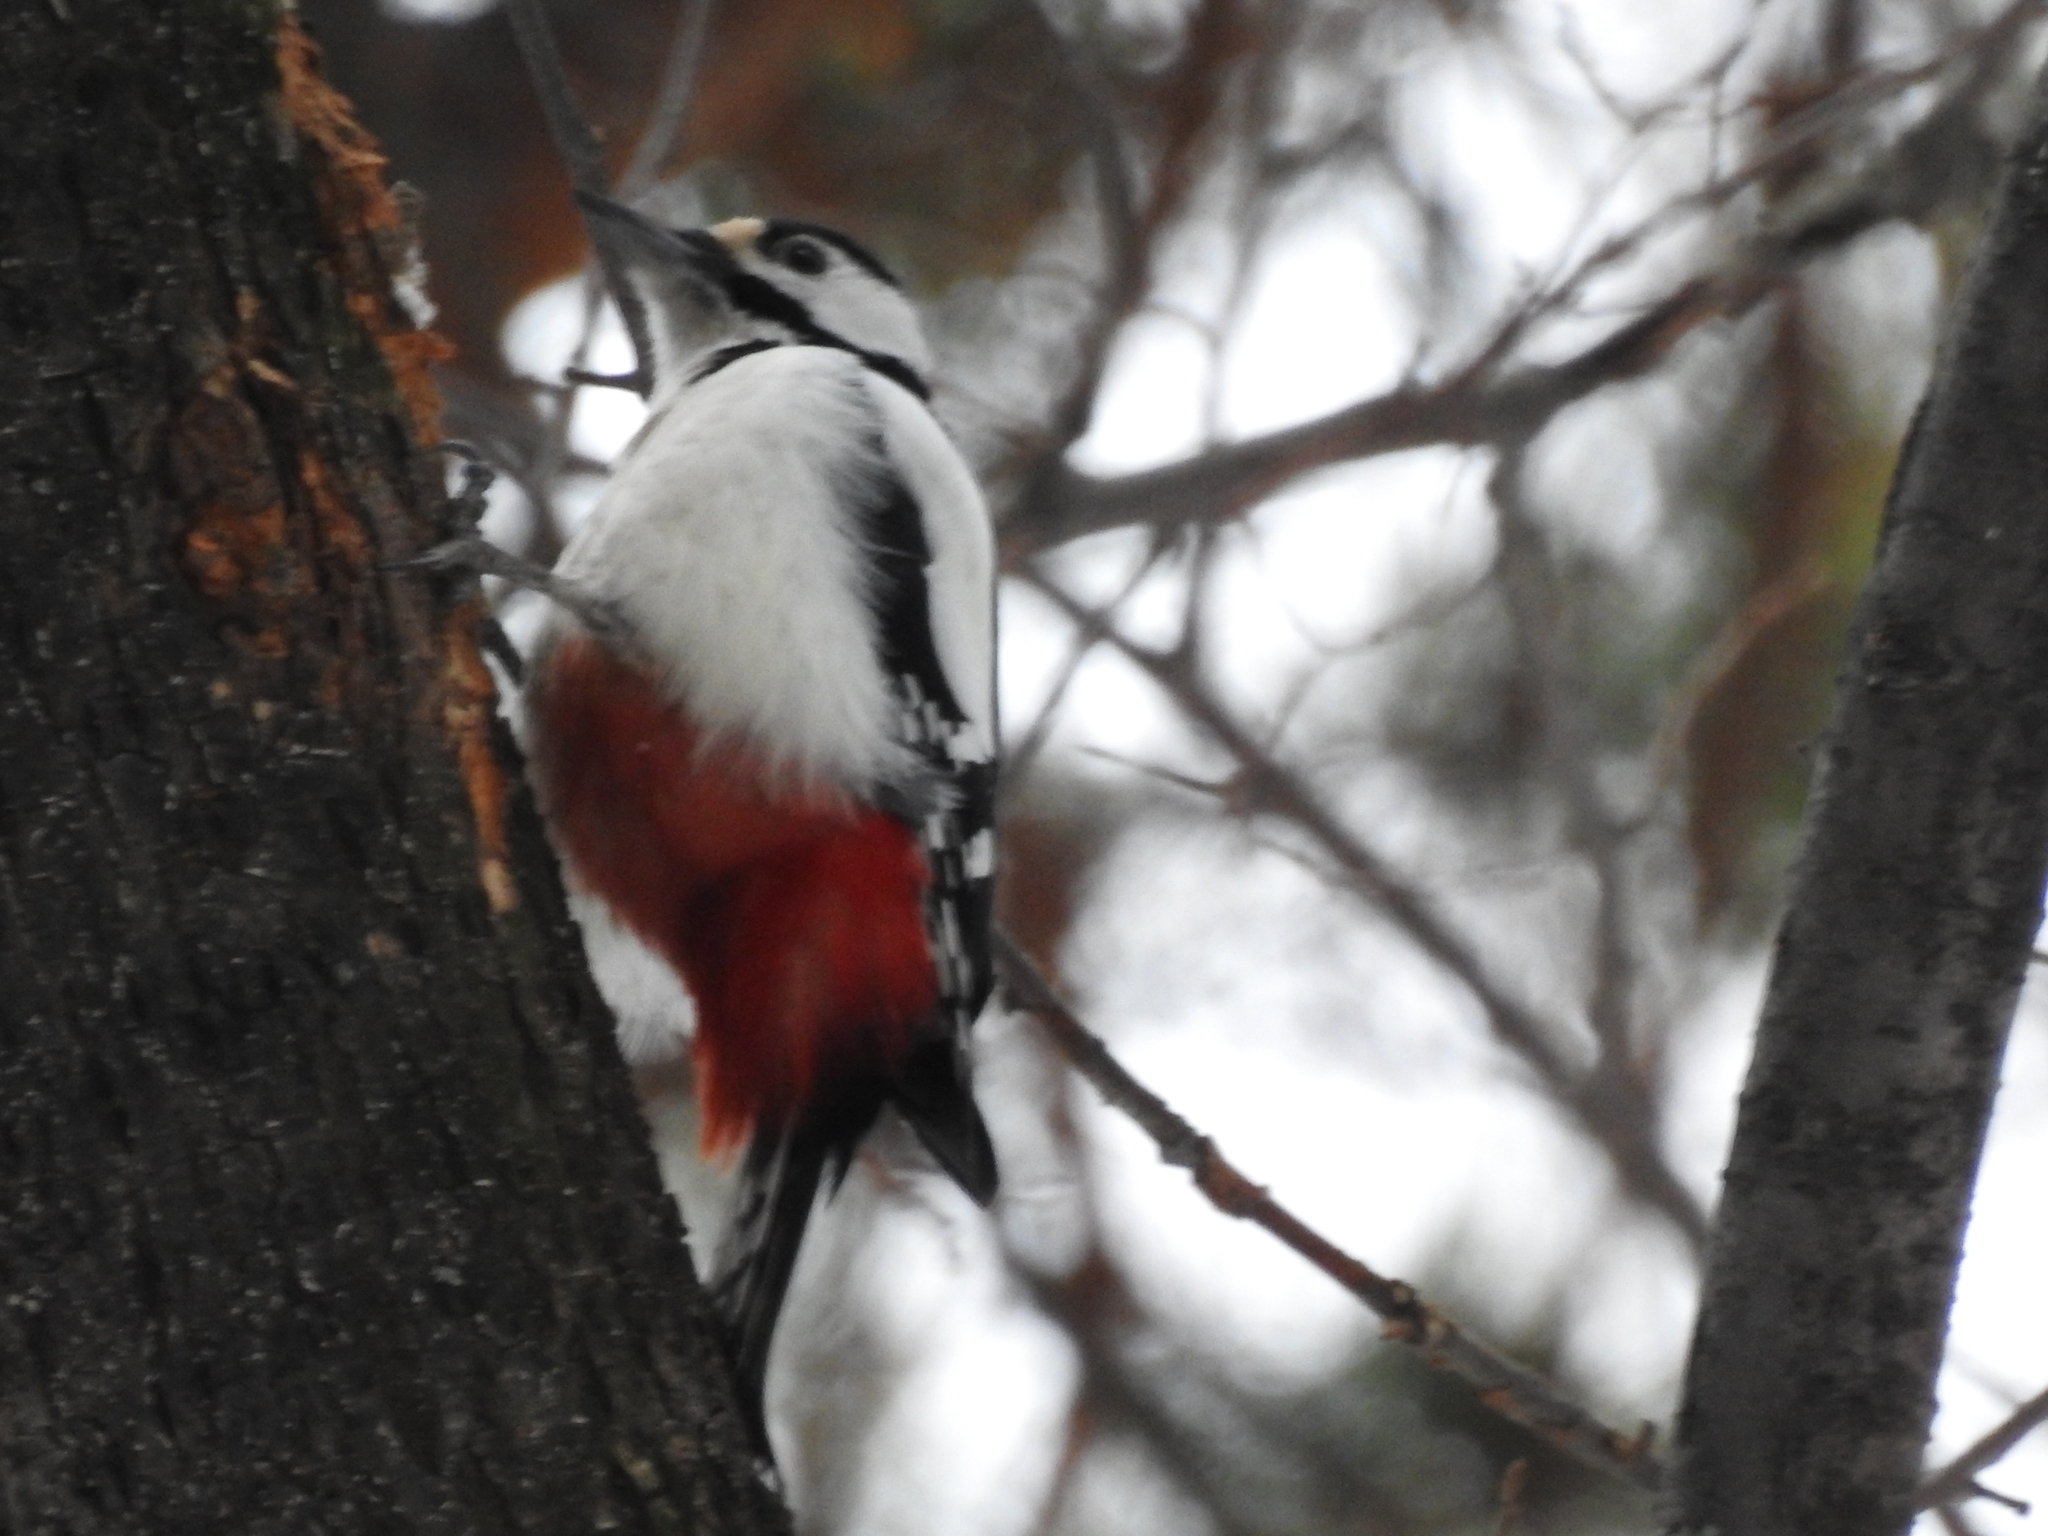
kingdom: Animalia
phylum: Chordata
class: Aves
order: Piciformes
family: Picidae
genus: Dendrocopos
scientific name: Dendrocopos major
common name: Great spotted woodpecker
